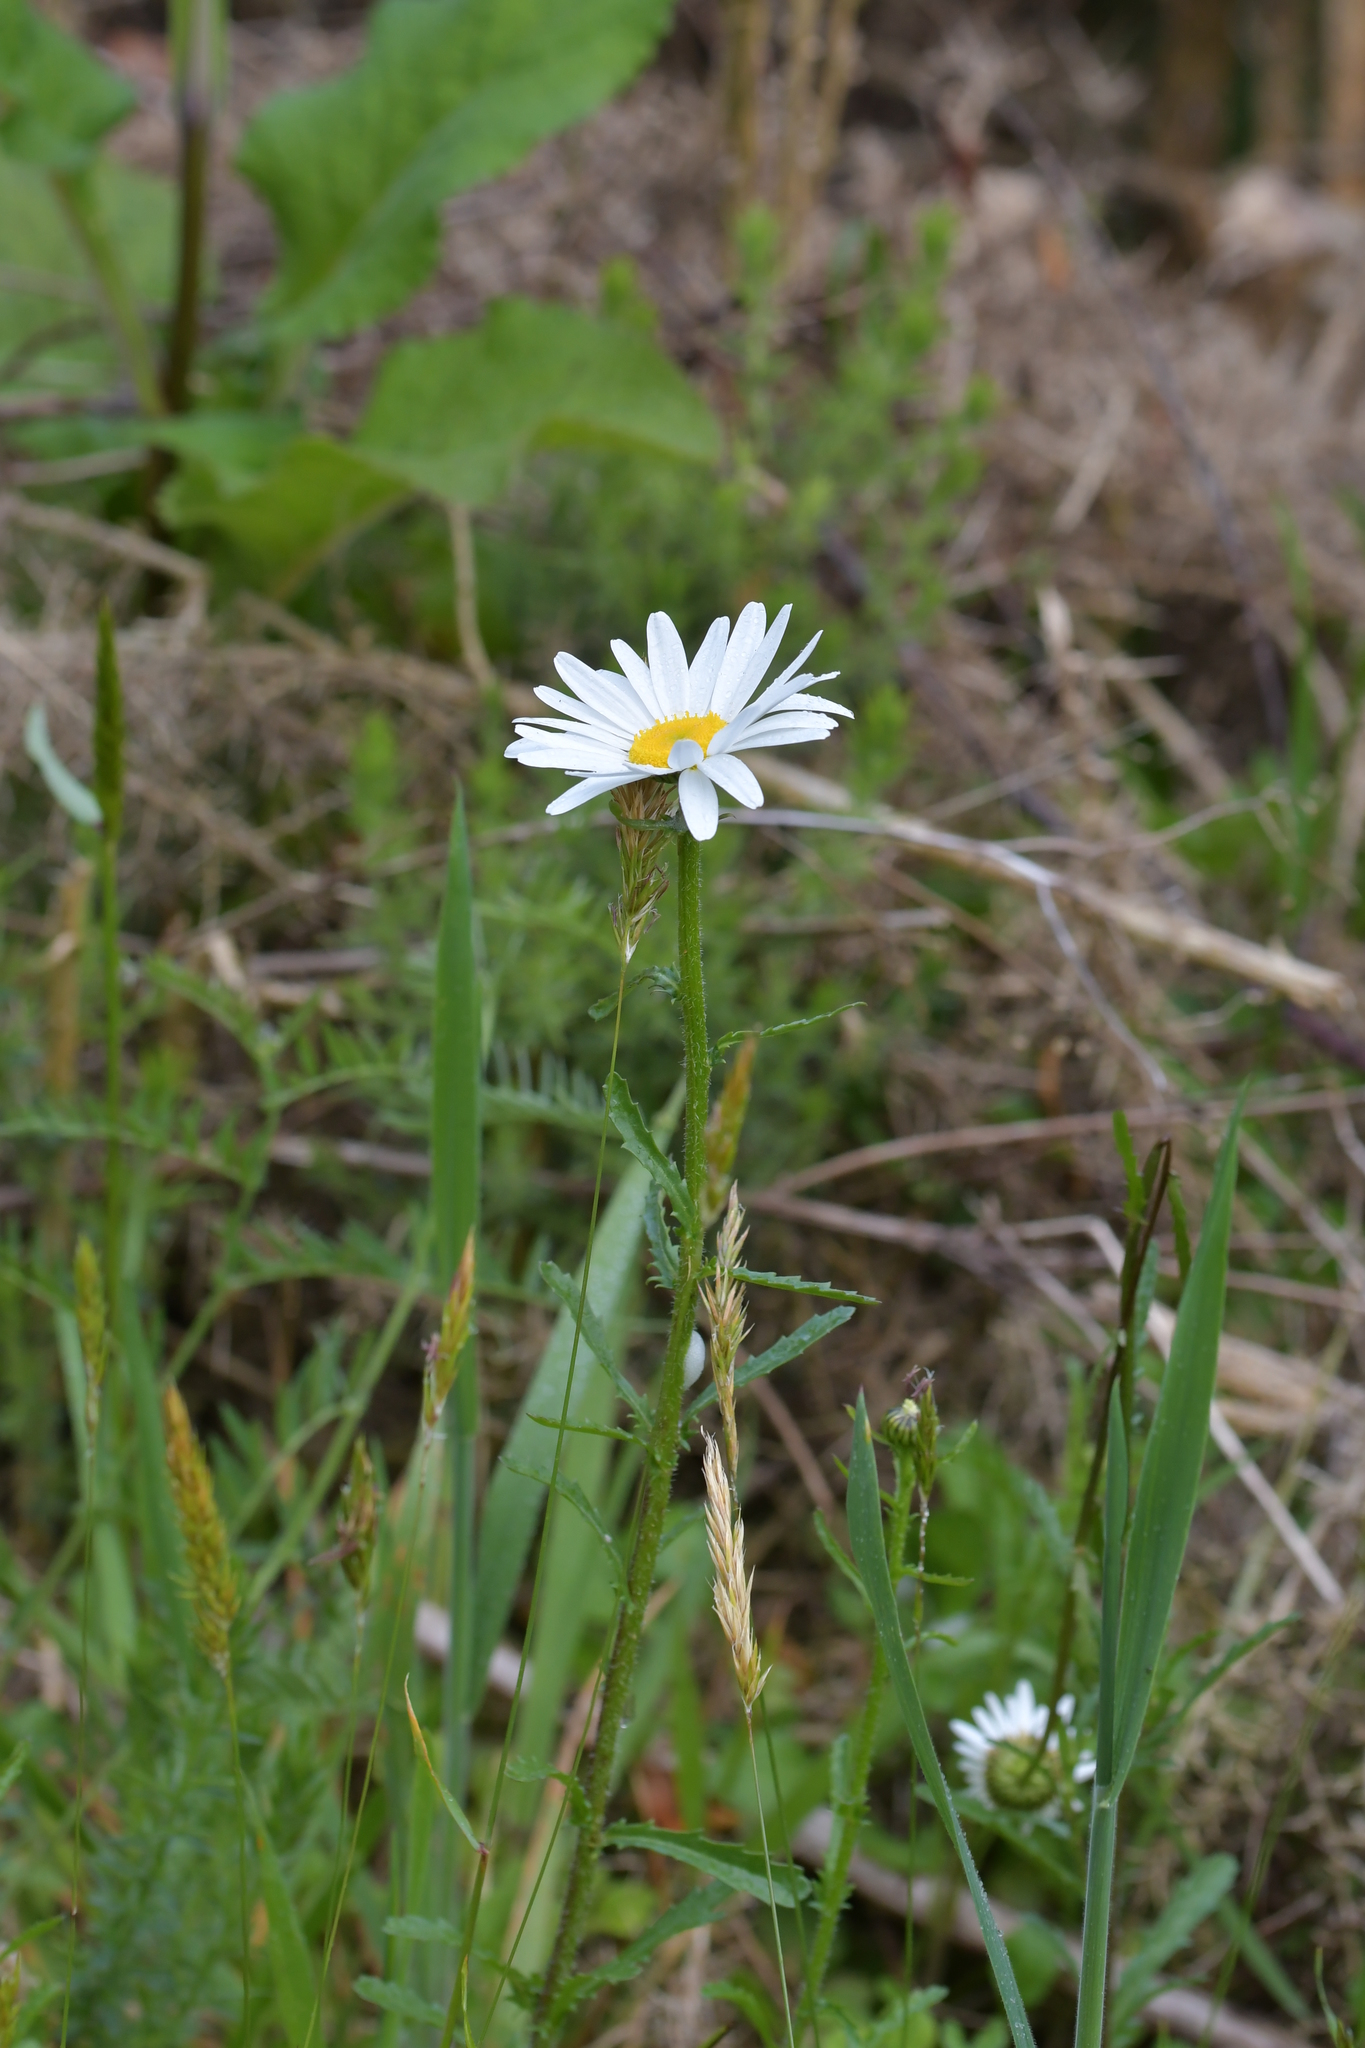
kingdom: Plantae
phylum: Tracheophyta
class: Magnoliopsida
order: Asterales
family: Asteraceae
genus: Leucanthemum
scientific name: Leucanthemum vulgare
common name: Oxeye daisy
